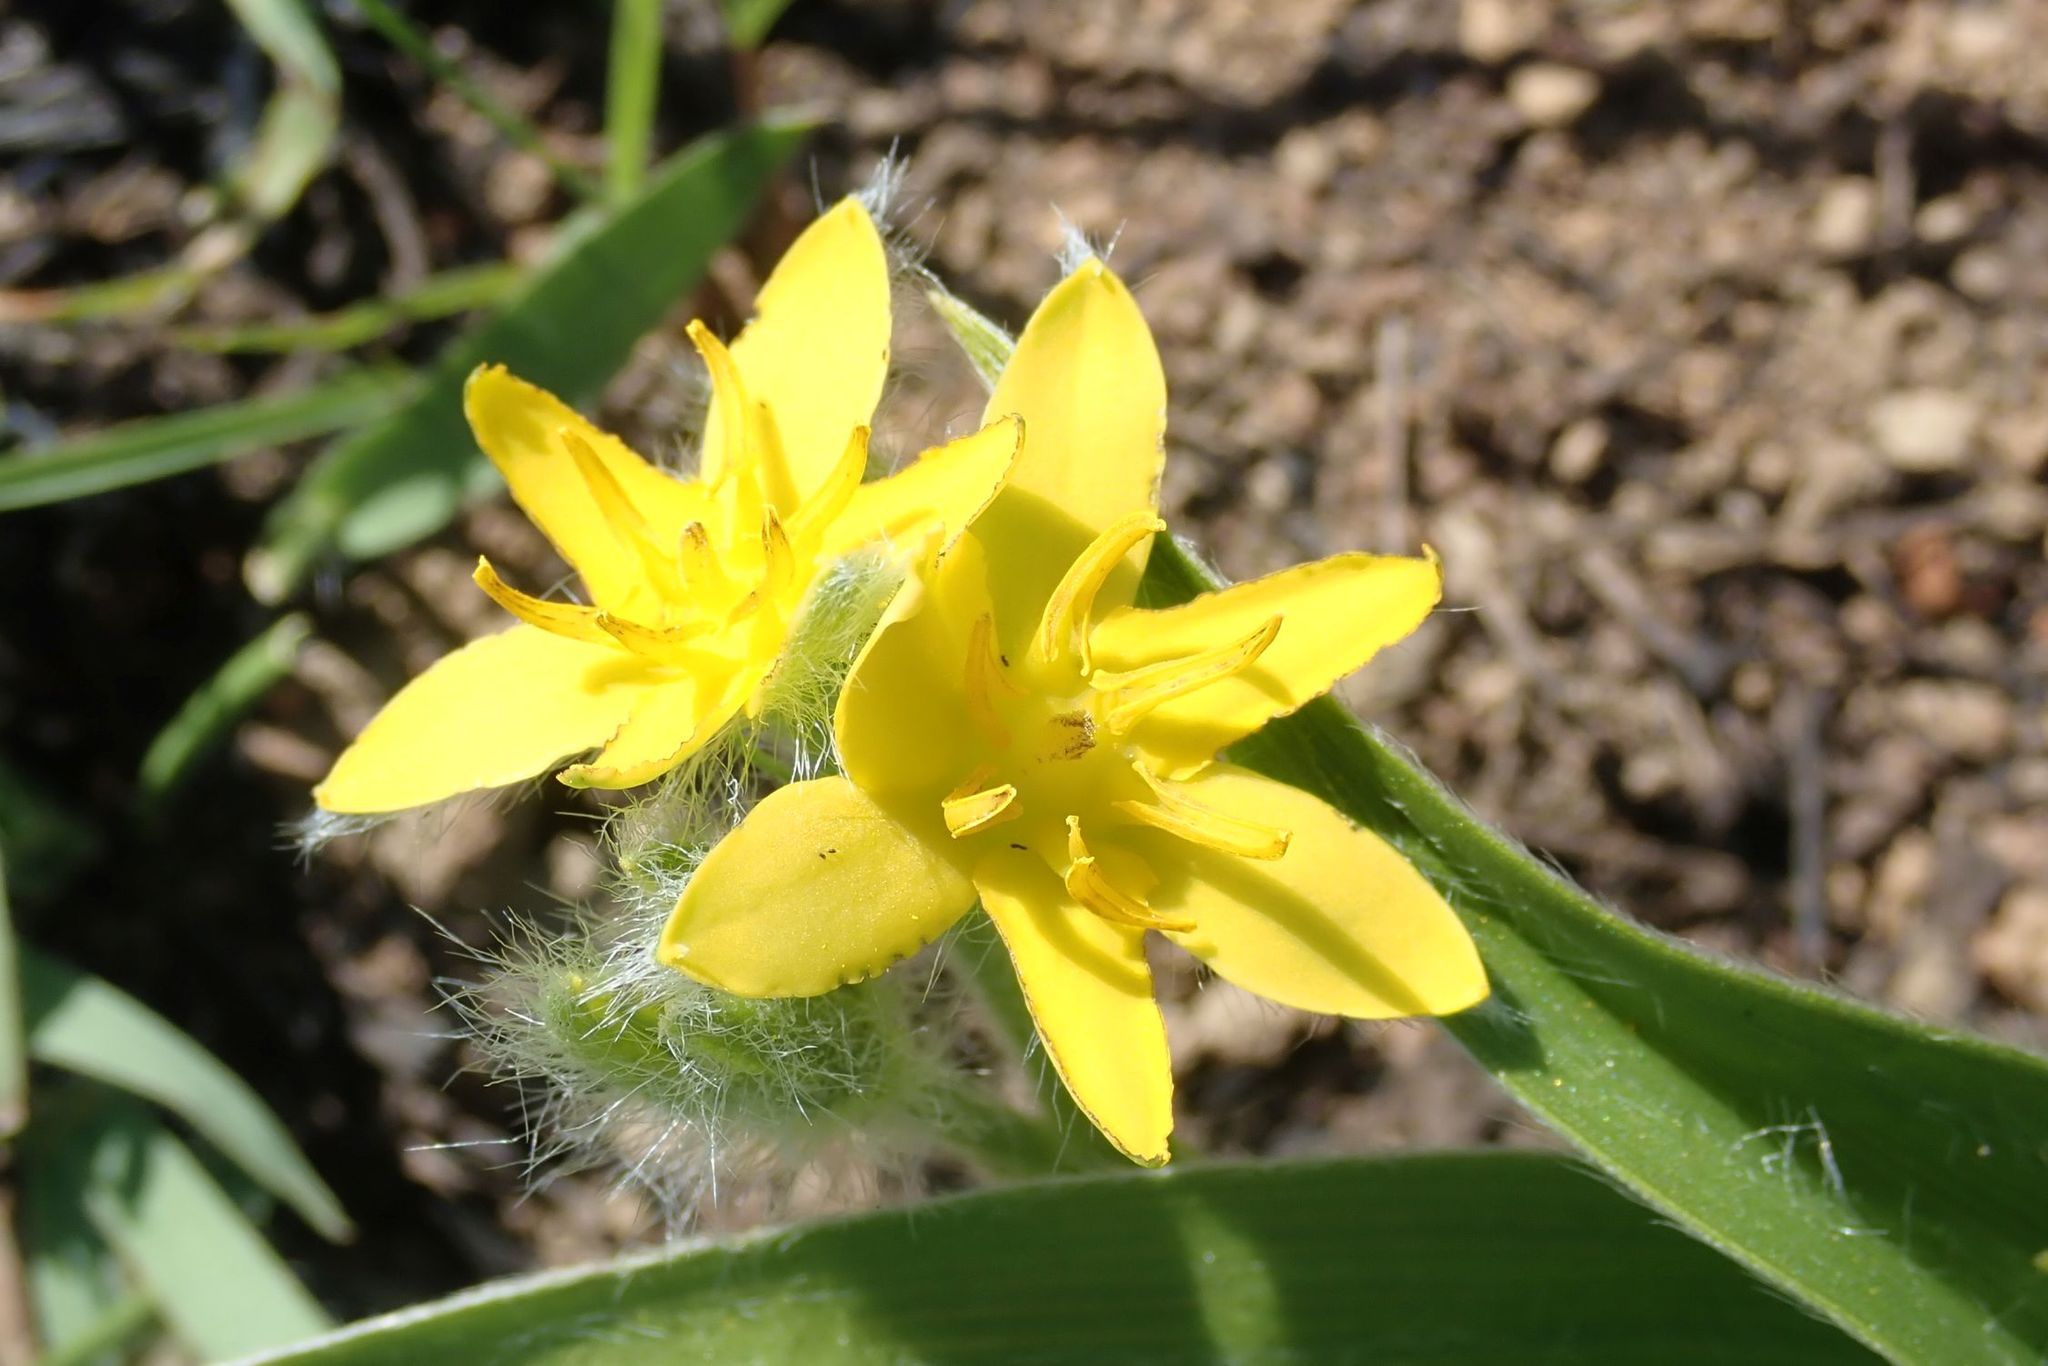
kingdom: Plantae
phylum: Tracheophyta
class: Liliopsida
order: Asparagales
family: Hypoxidaceae
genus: Hypoxis
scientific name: Hypoxis hemerocallidea
